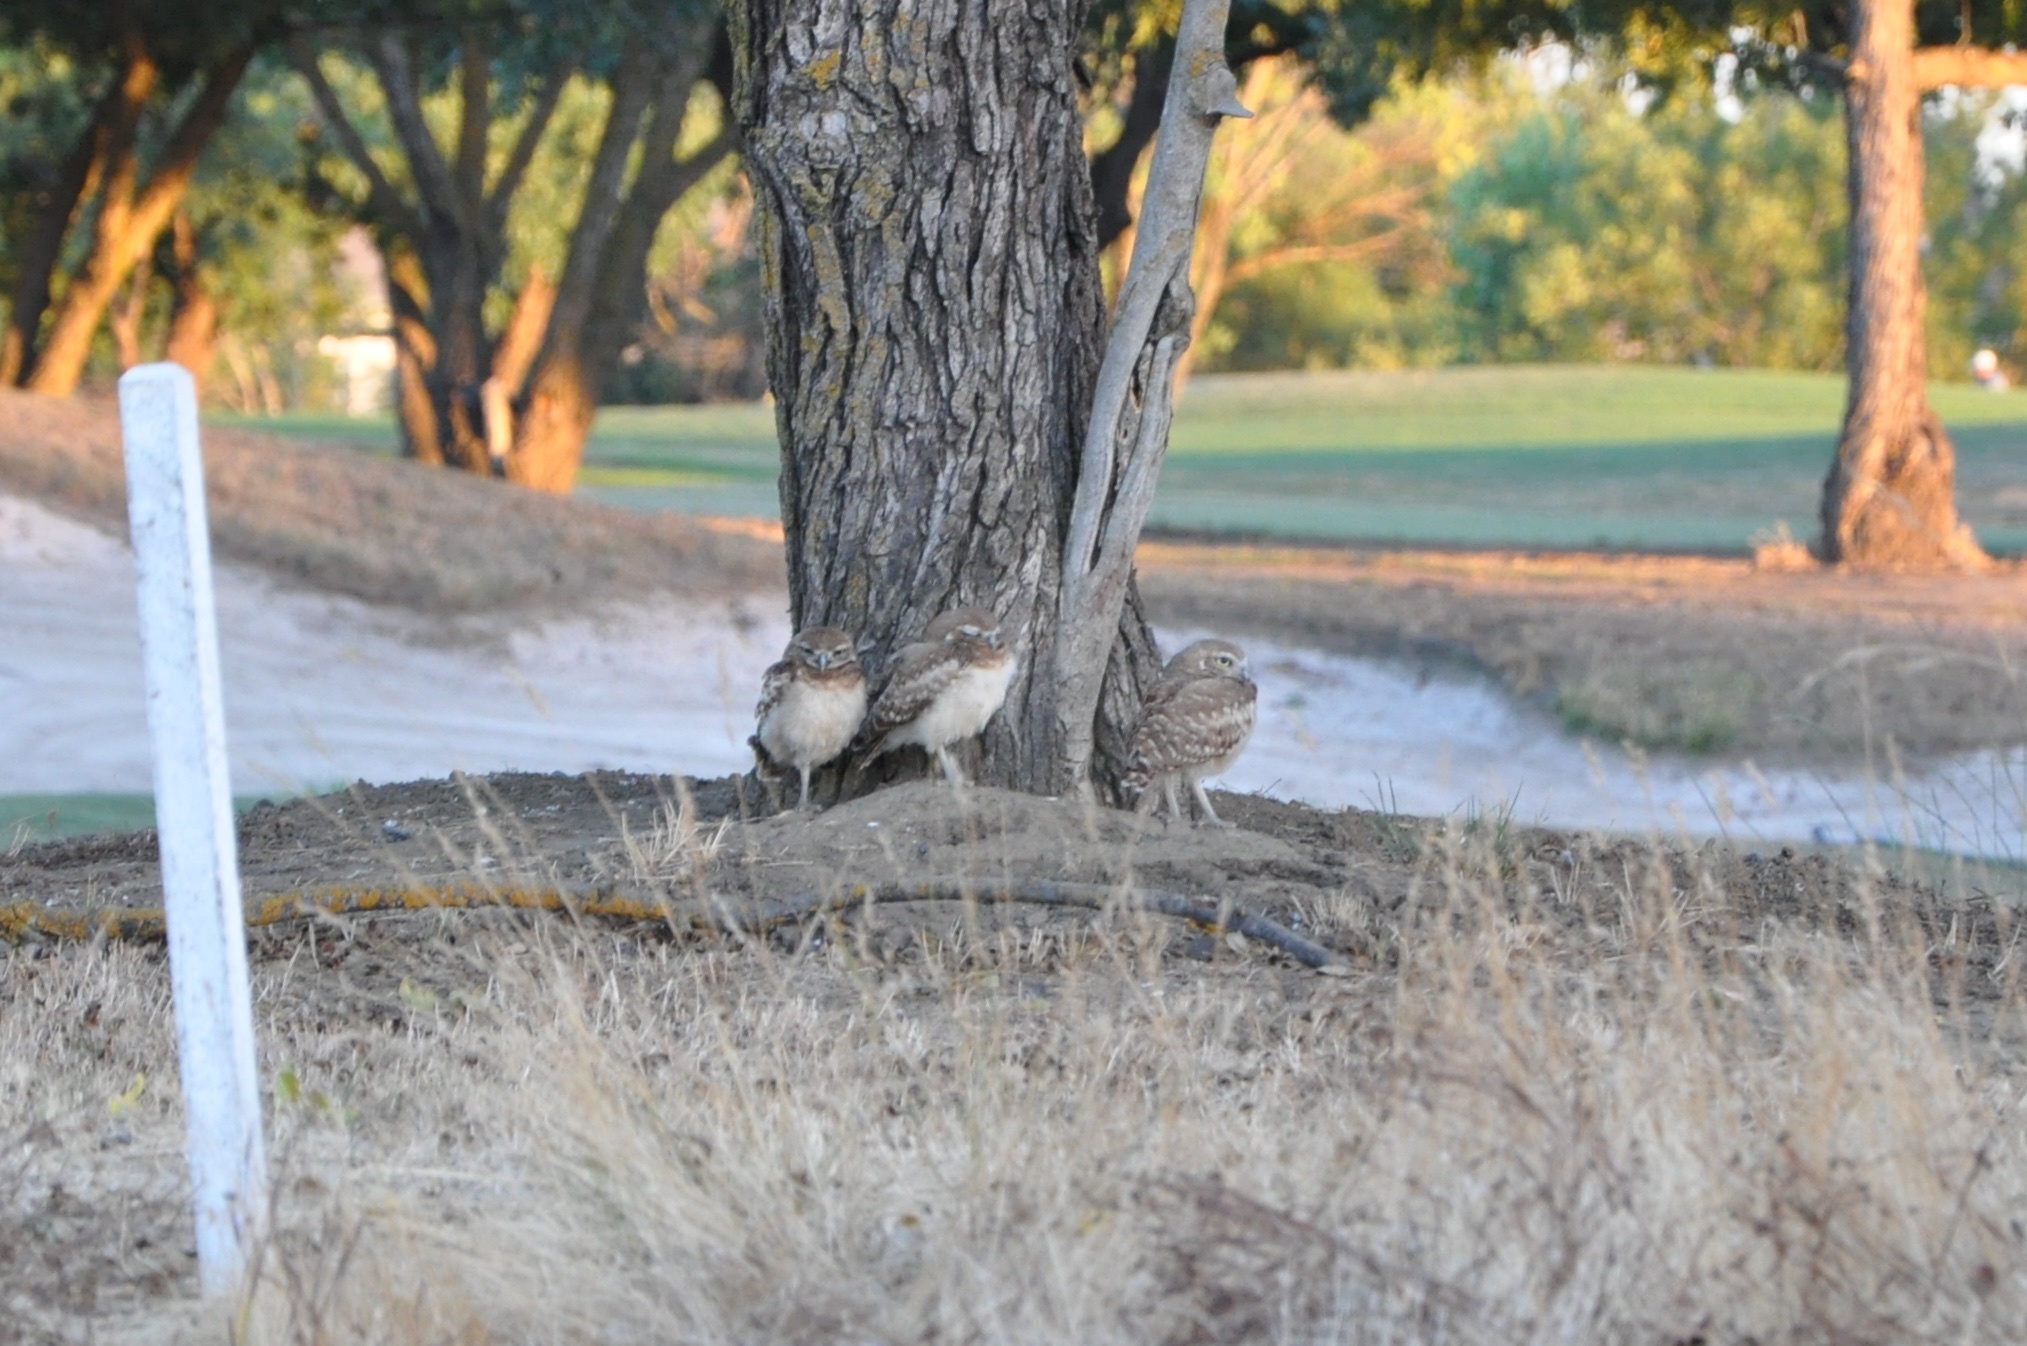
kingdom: Animalia
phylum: Chordata
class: Aves
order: Strigiformes
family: Strigidae
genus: Athene
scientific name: Athene cunicularia
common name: Burrowing owl
